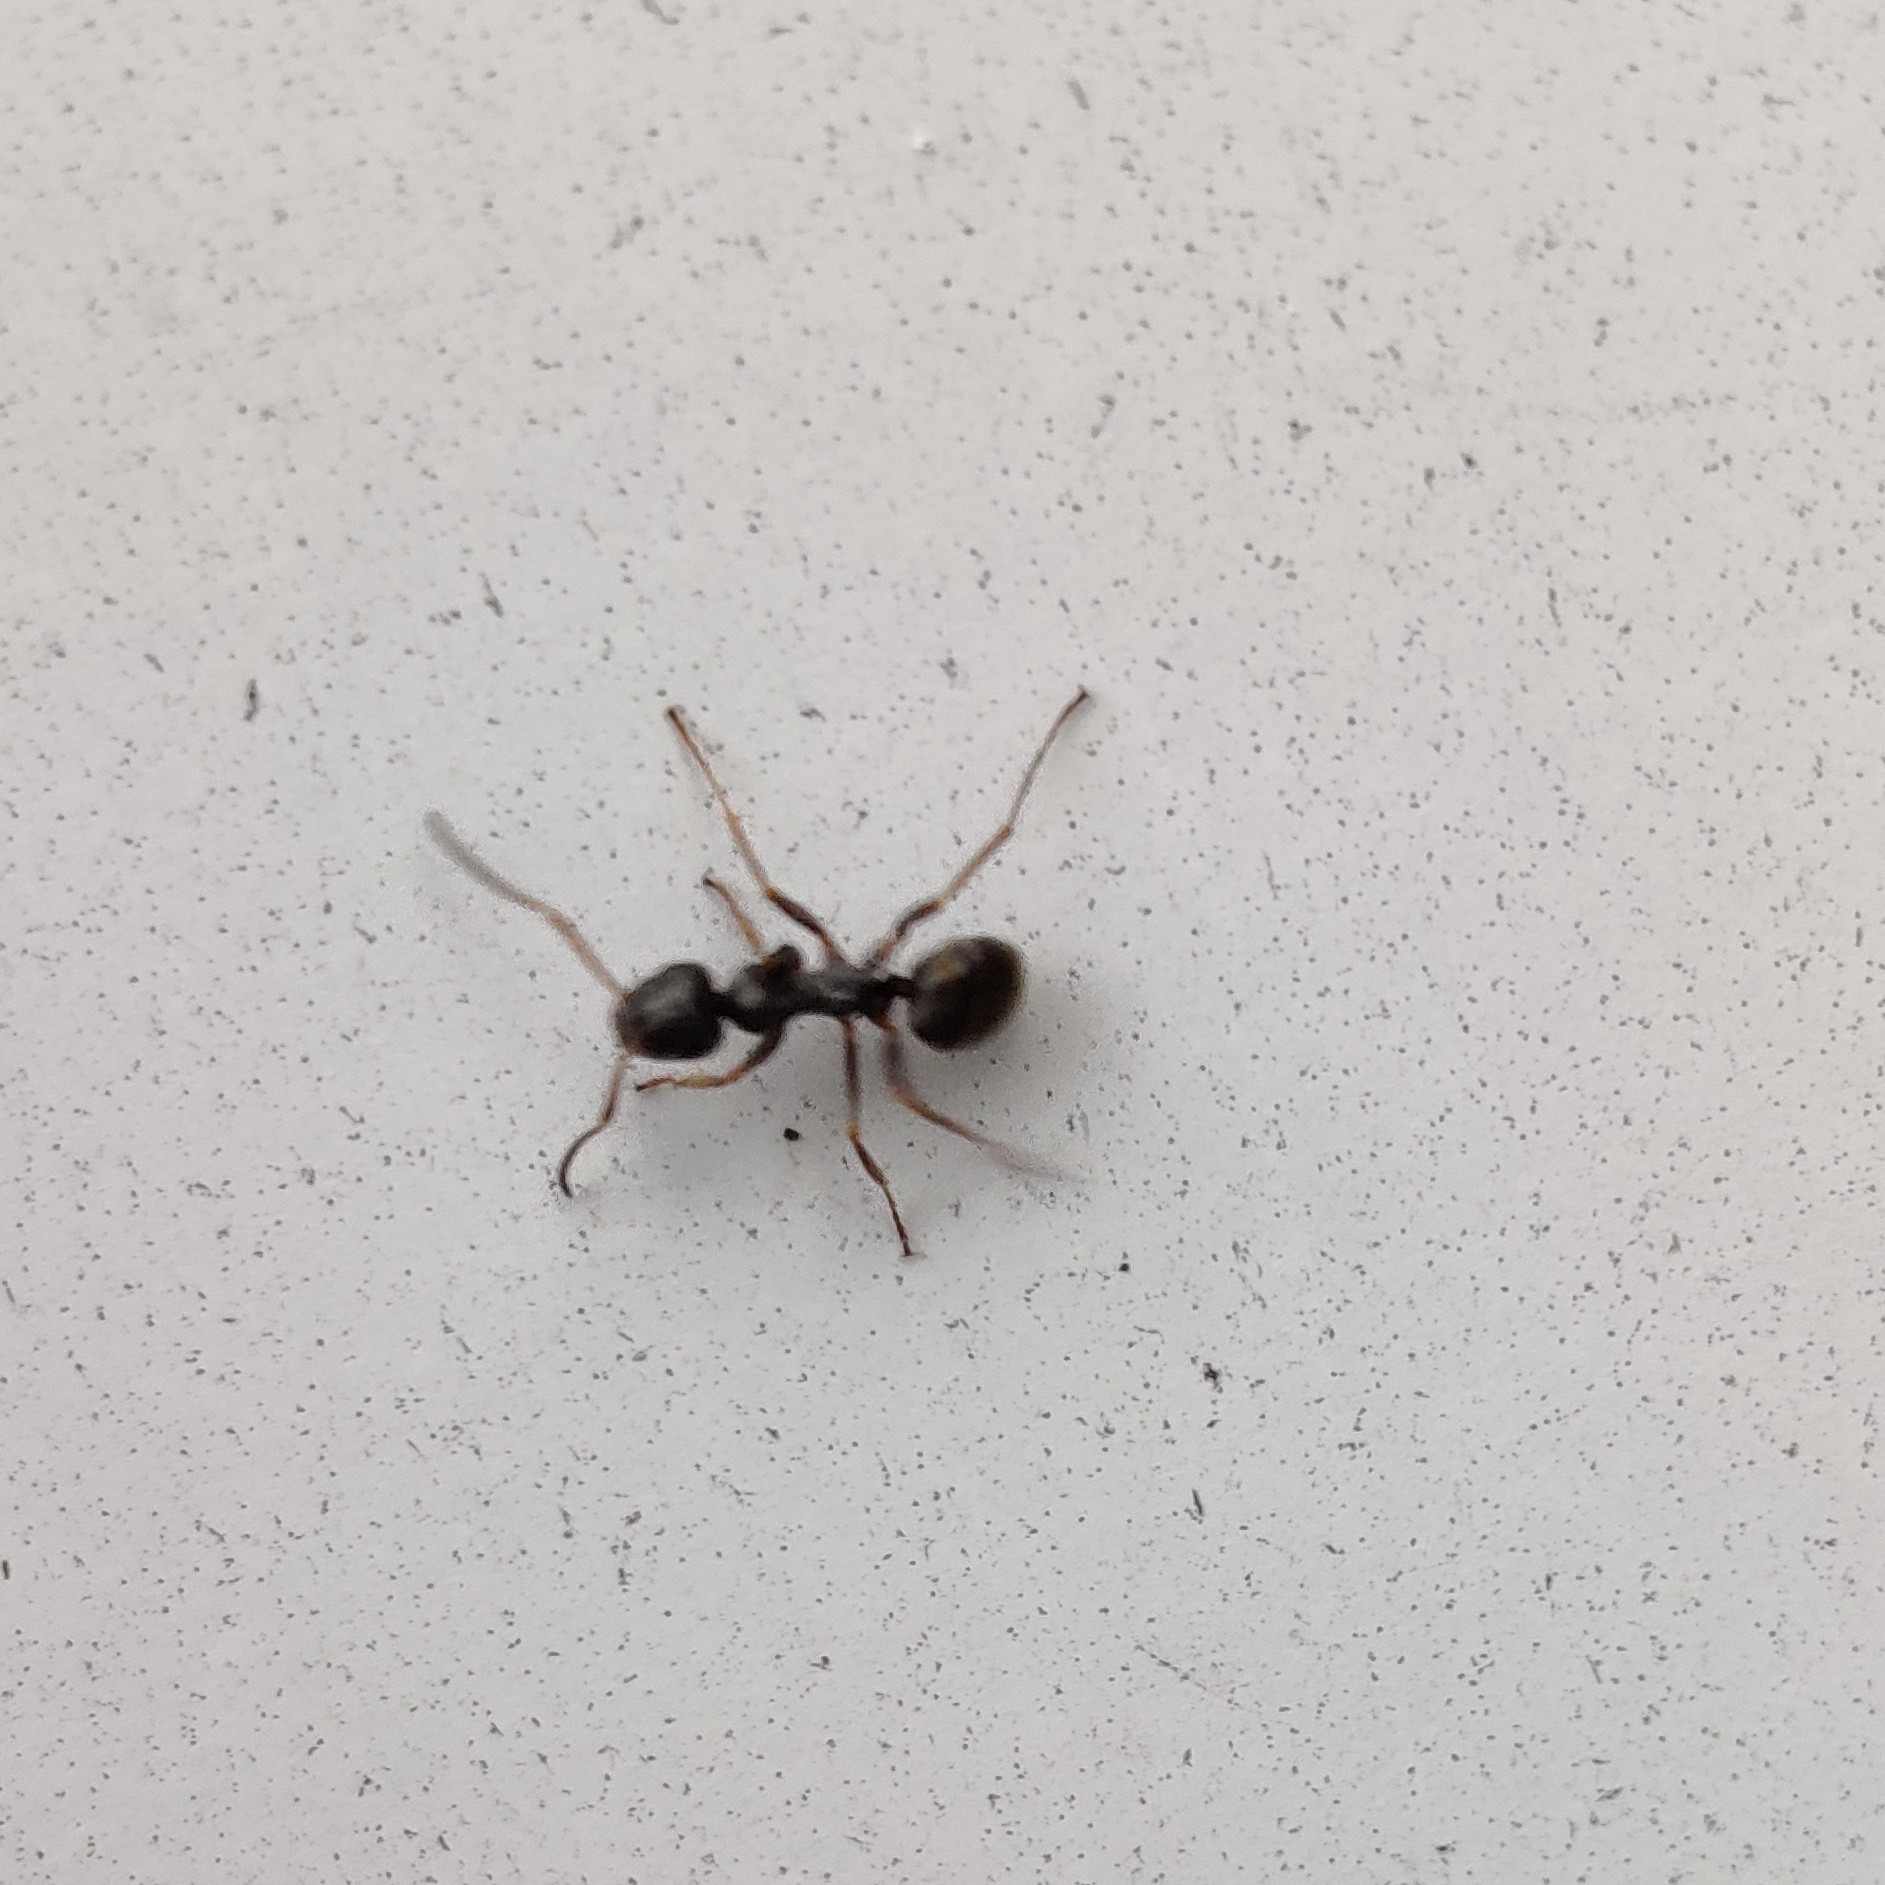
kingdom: Animalia
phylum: Arthropoda
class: Insecta
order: Hymenoptera
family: Formicidae
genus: Formica
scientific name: Formica
